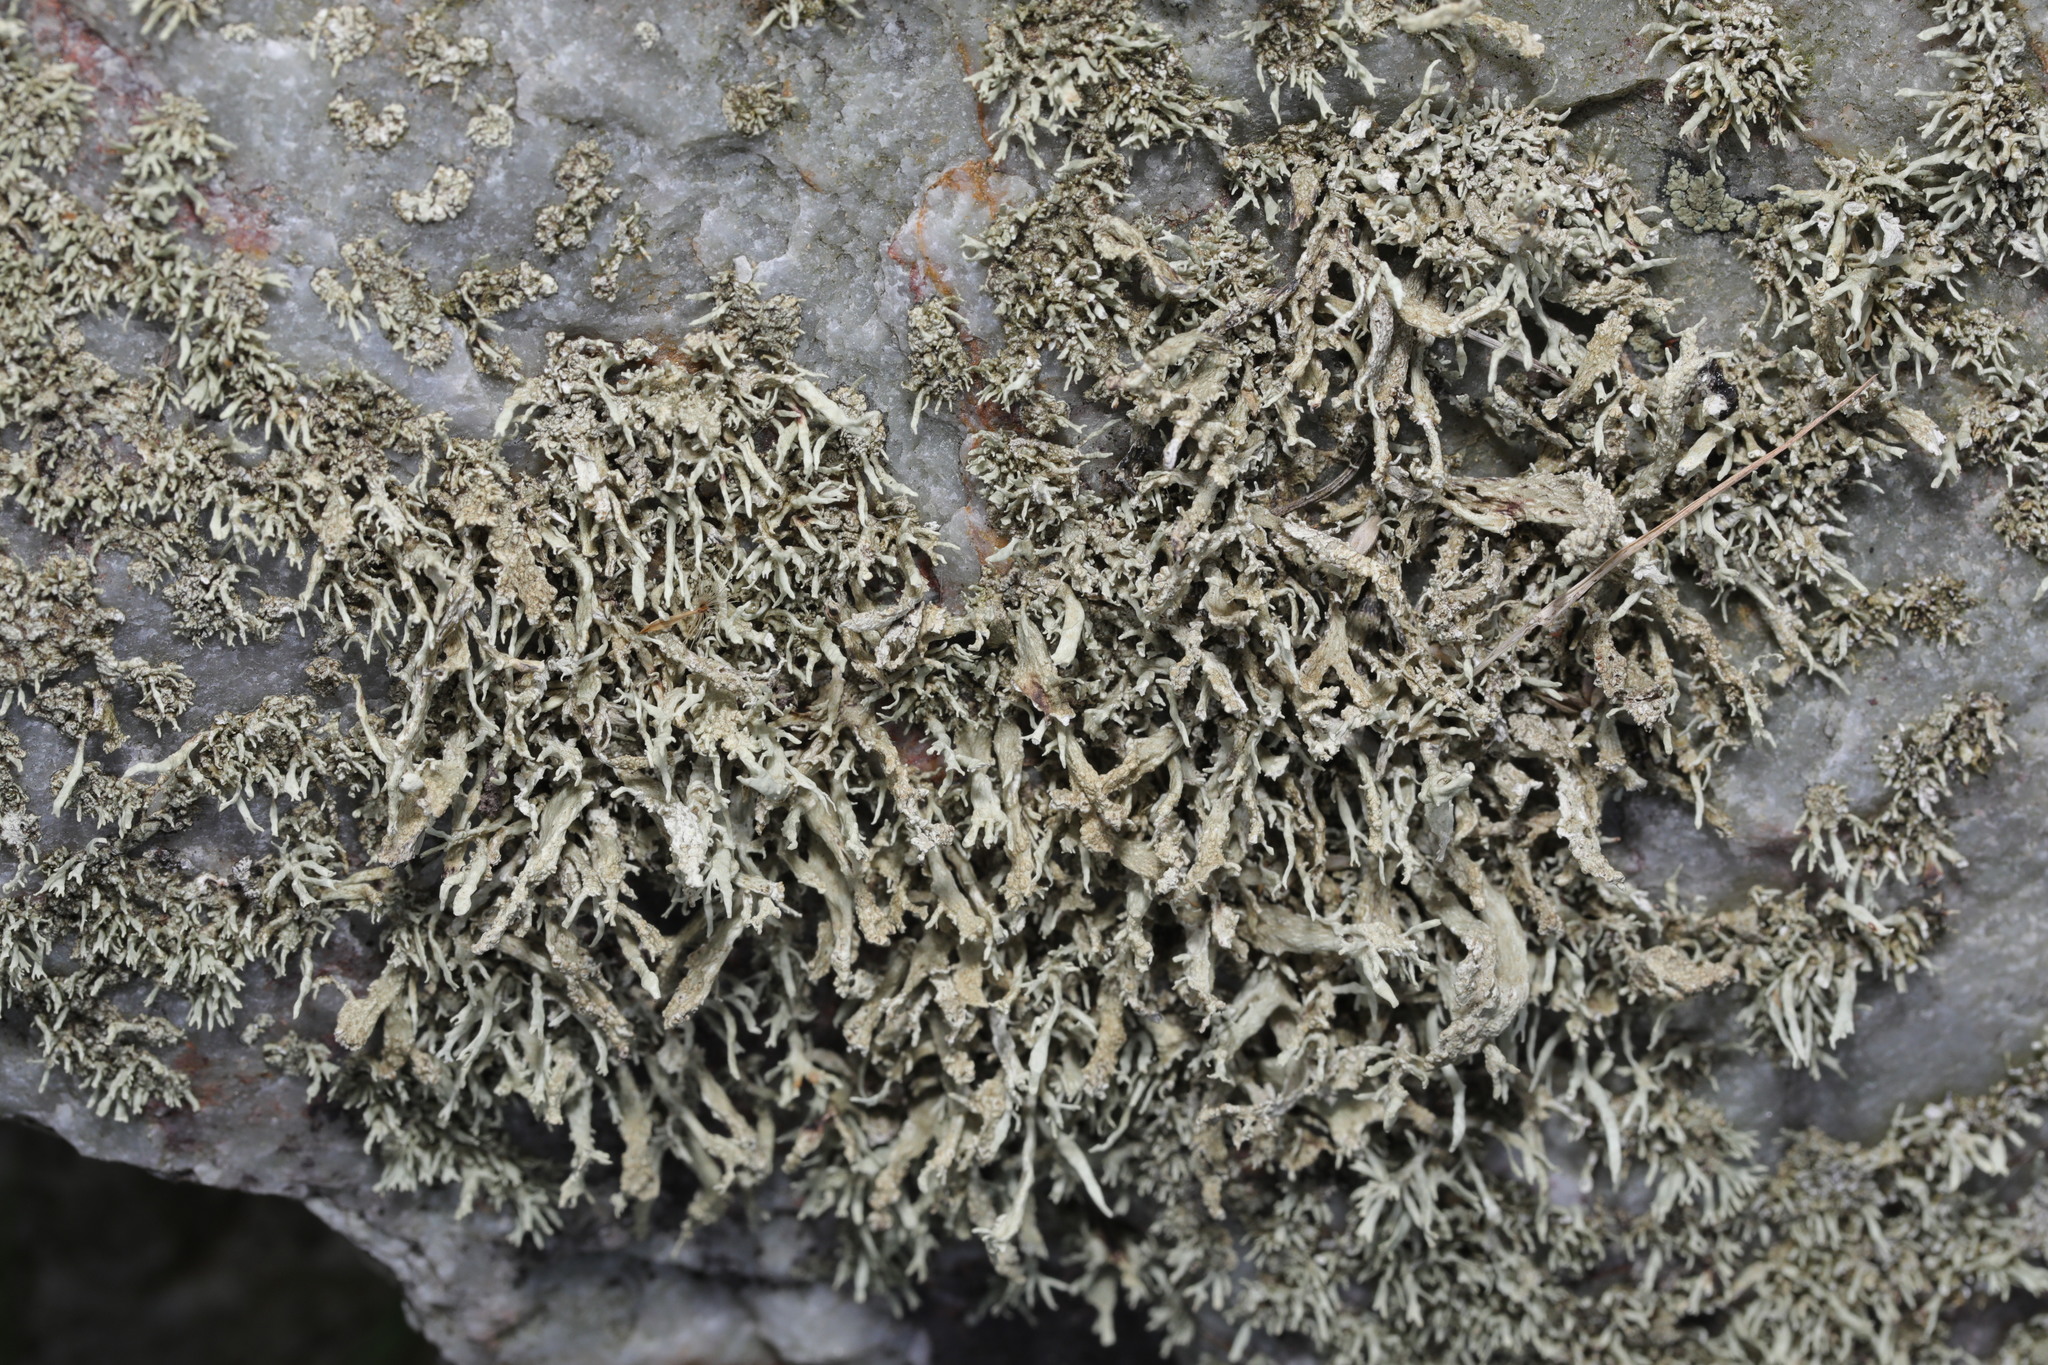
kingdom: Fungi
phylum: Ascomycota
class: Lecanoromycetes
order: Lecanorales
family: Ramalinaceae
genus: Ramalina
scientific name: Ramalina siliquosa
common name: Sea ivory
